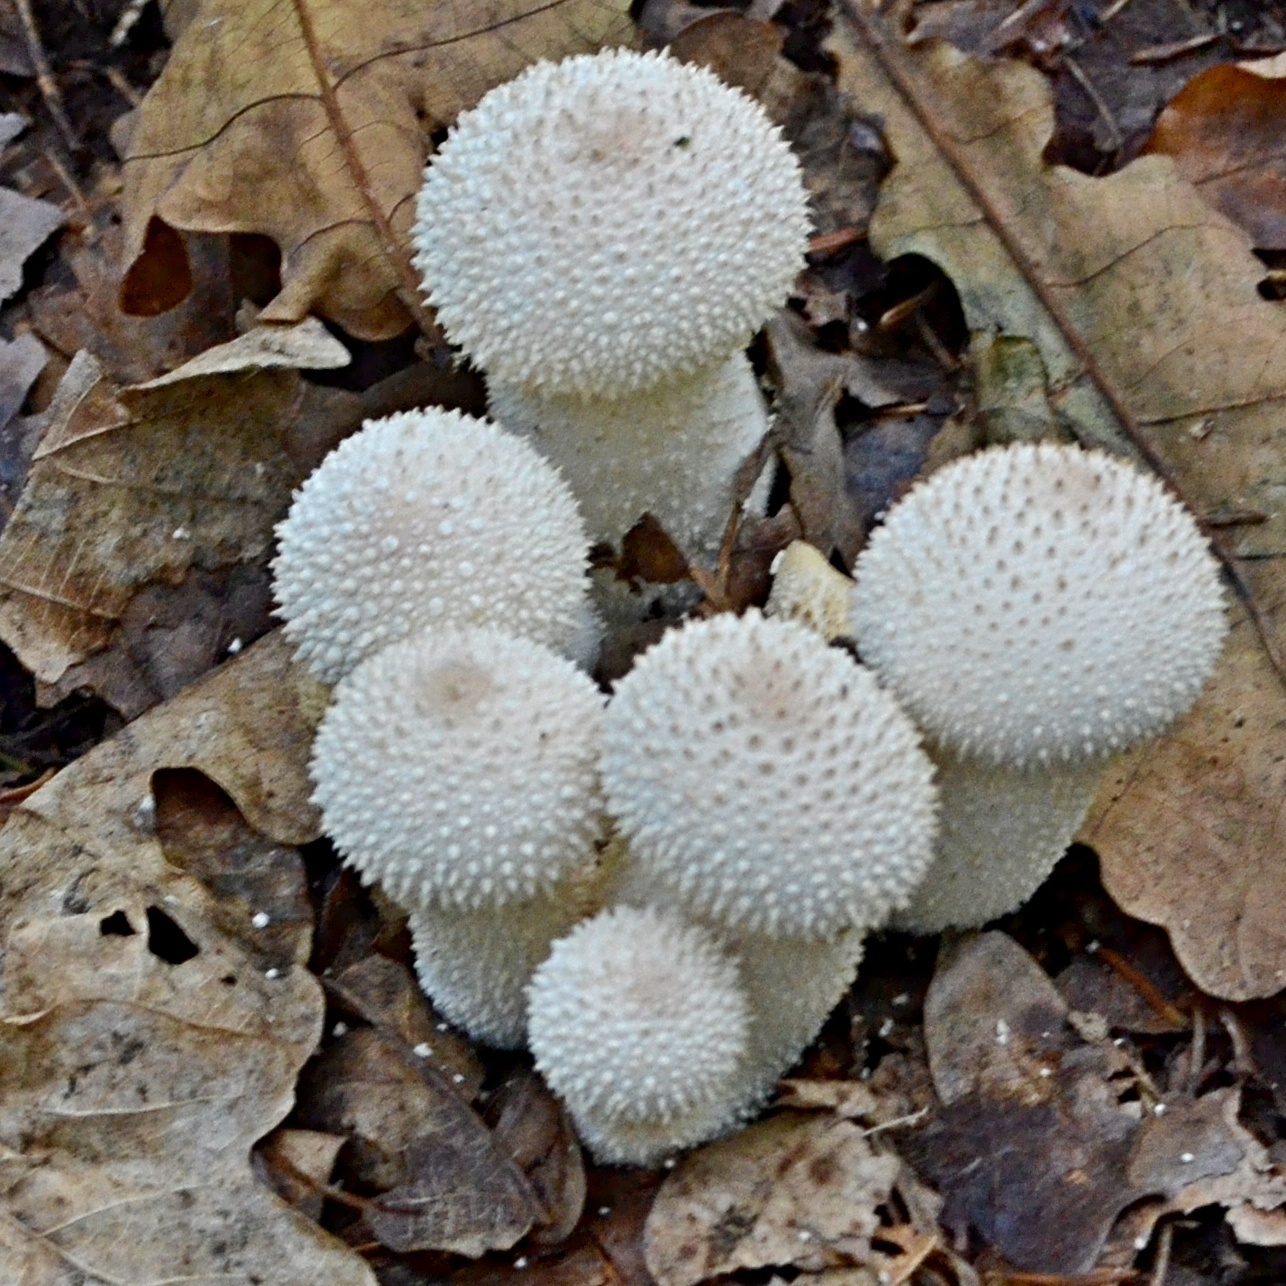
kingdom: Fungi
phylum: Basidiomycota
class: Agaricomycetes
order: Agaricales
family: Lycoperdaceae
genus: Lycoperdon
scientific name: Lycoperdon perlatum
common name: Common puffball
